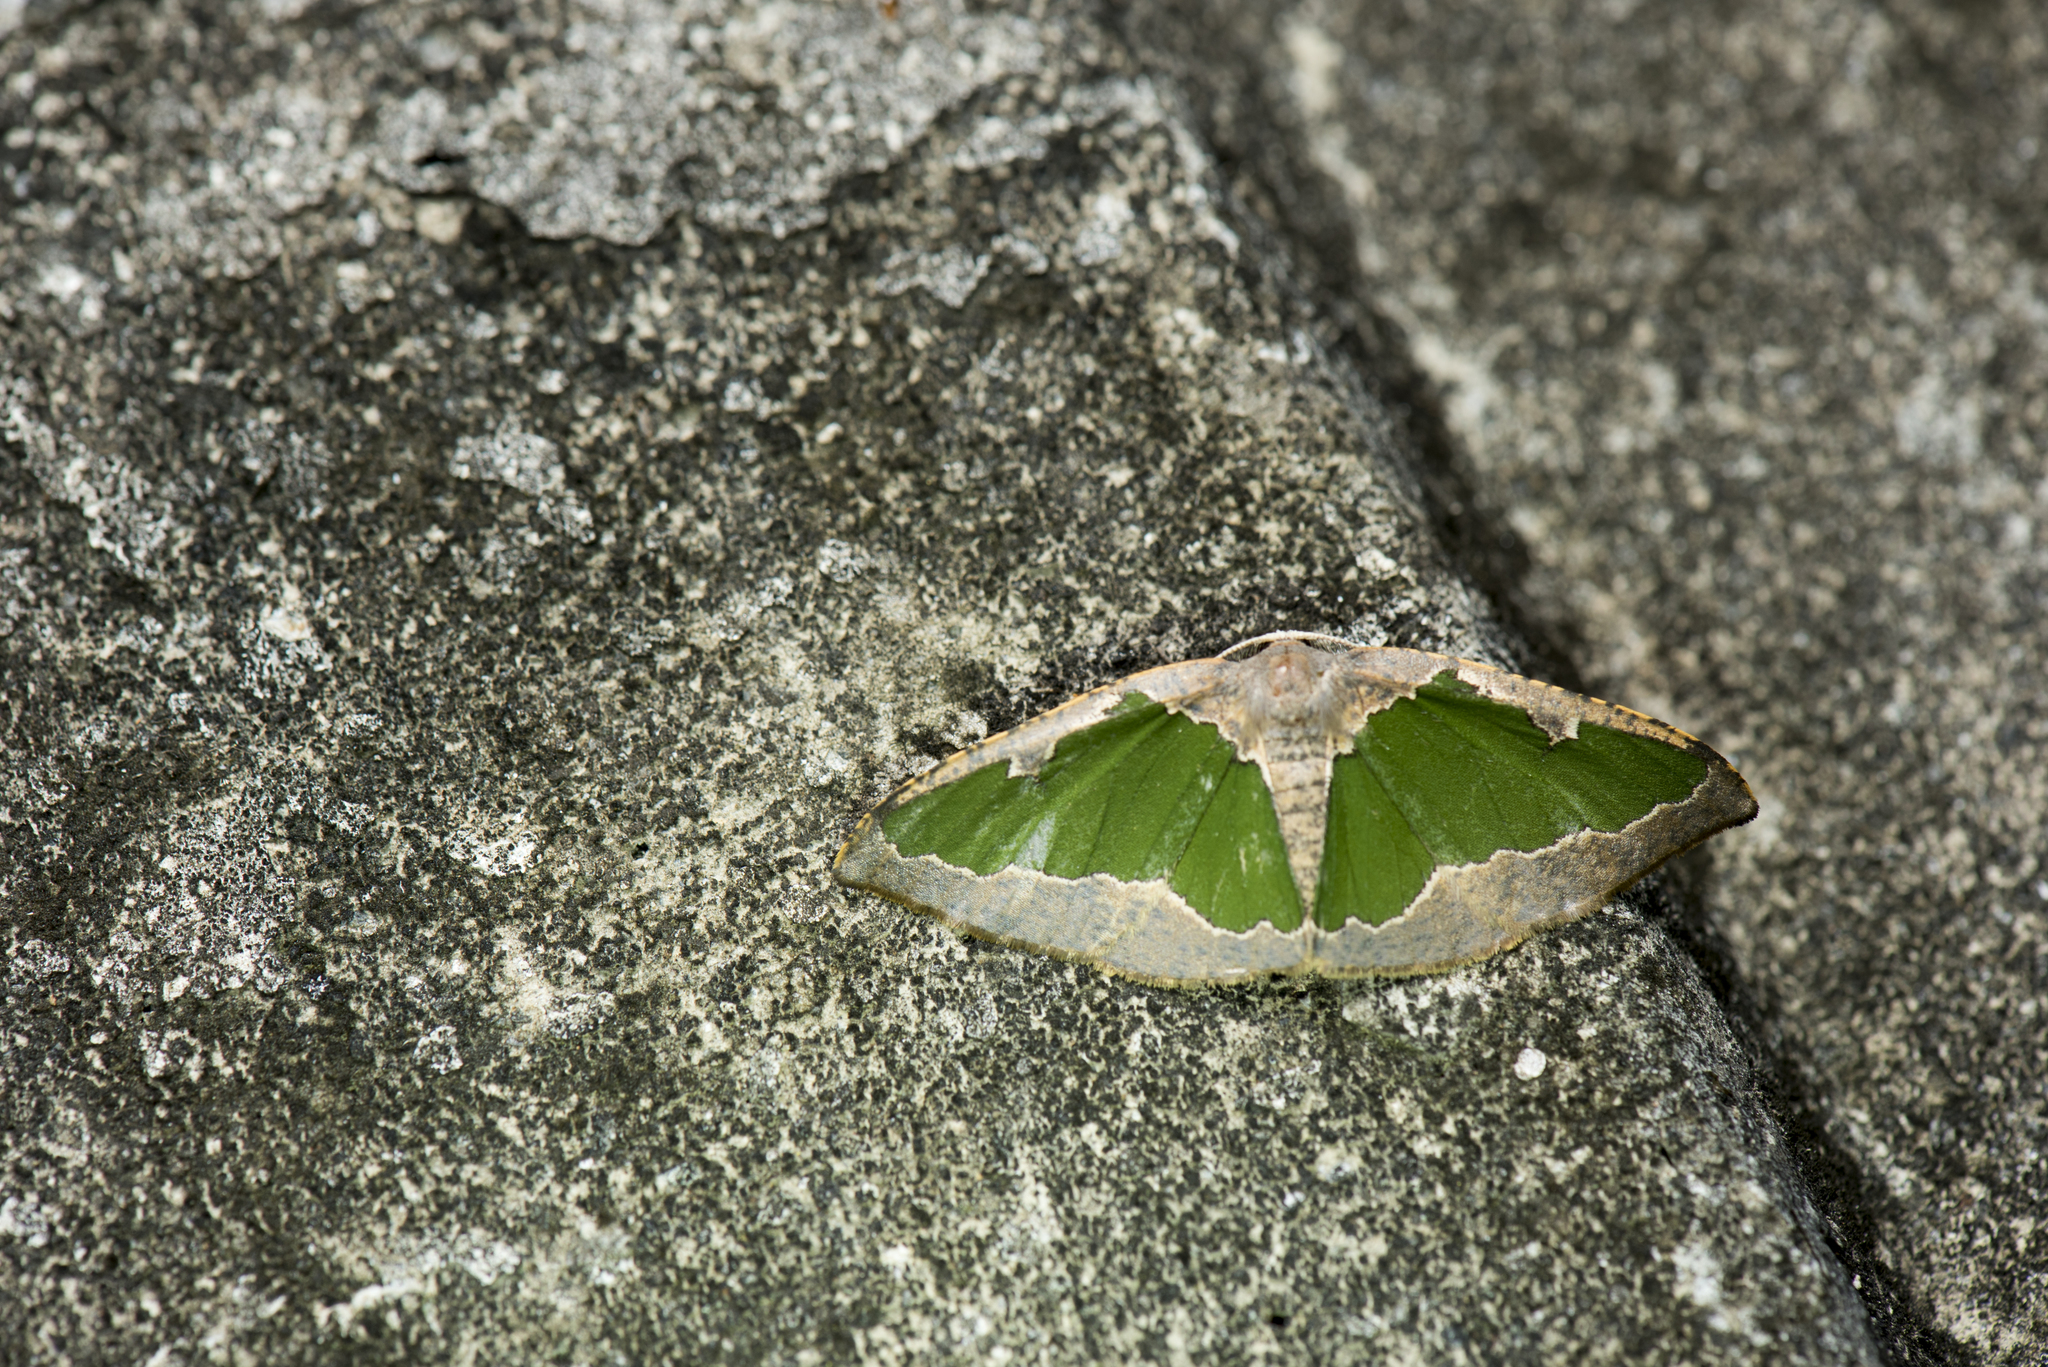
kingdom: Animalia
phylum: Arthropoda
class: Insecta
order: Lepidoptera
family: Geometridae
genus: Celenna
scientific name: Celenna festivaria
